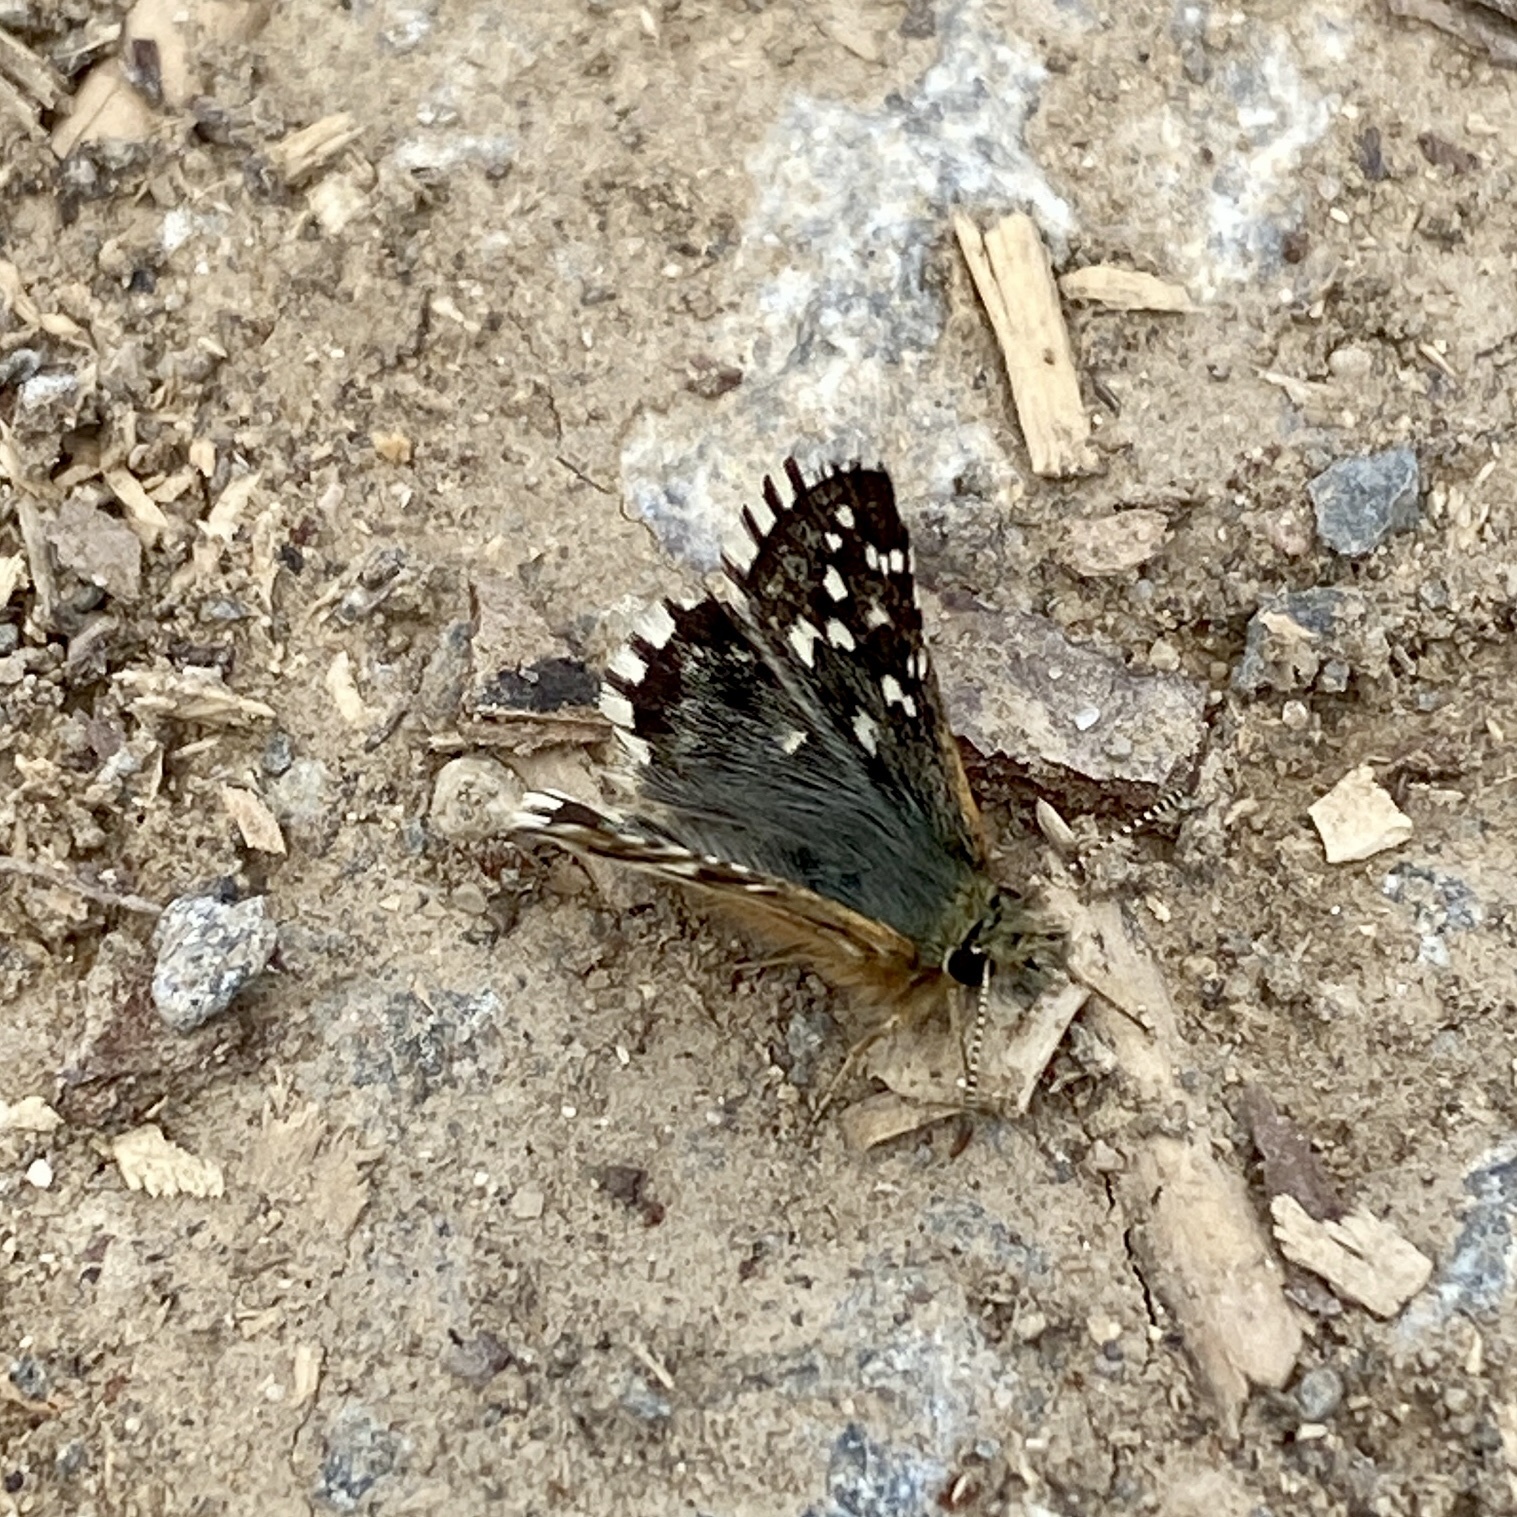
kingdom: Animalia
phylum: Arthropoda
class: Insecta
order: Lepidoptera
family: Hesperiidae
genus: Pyrgus
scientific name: Pyrgus malvoides
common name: Southern grizzled skipper
